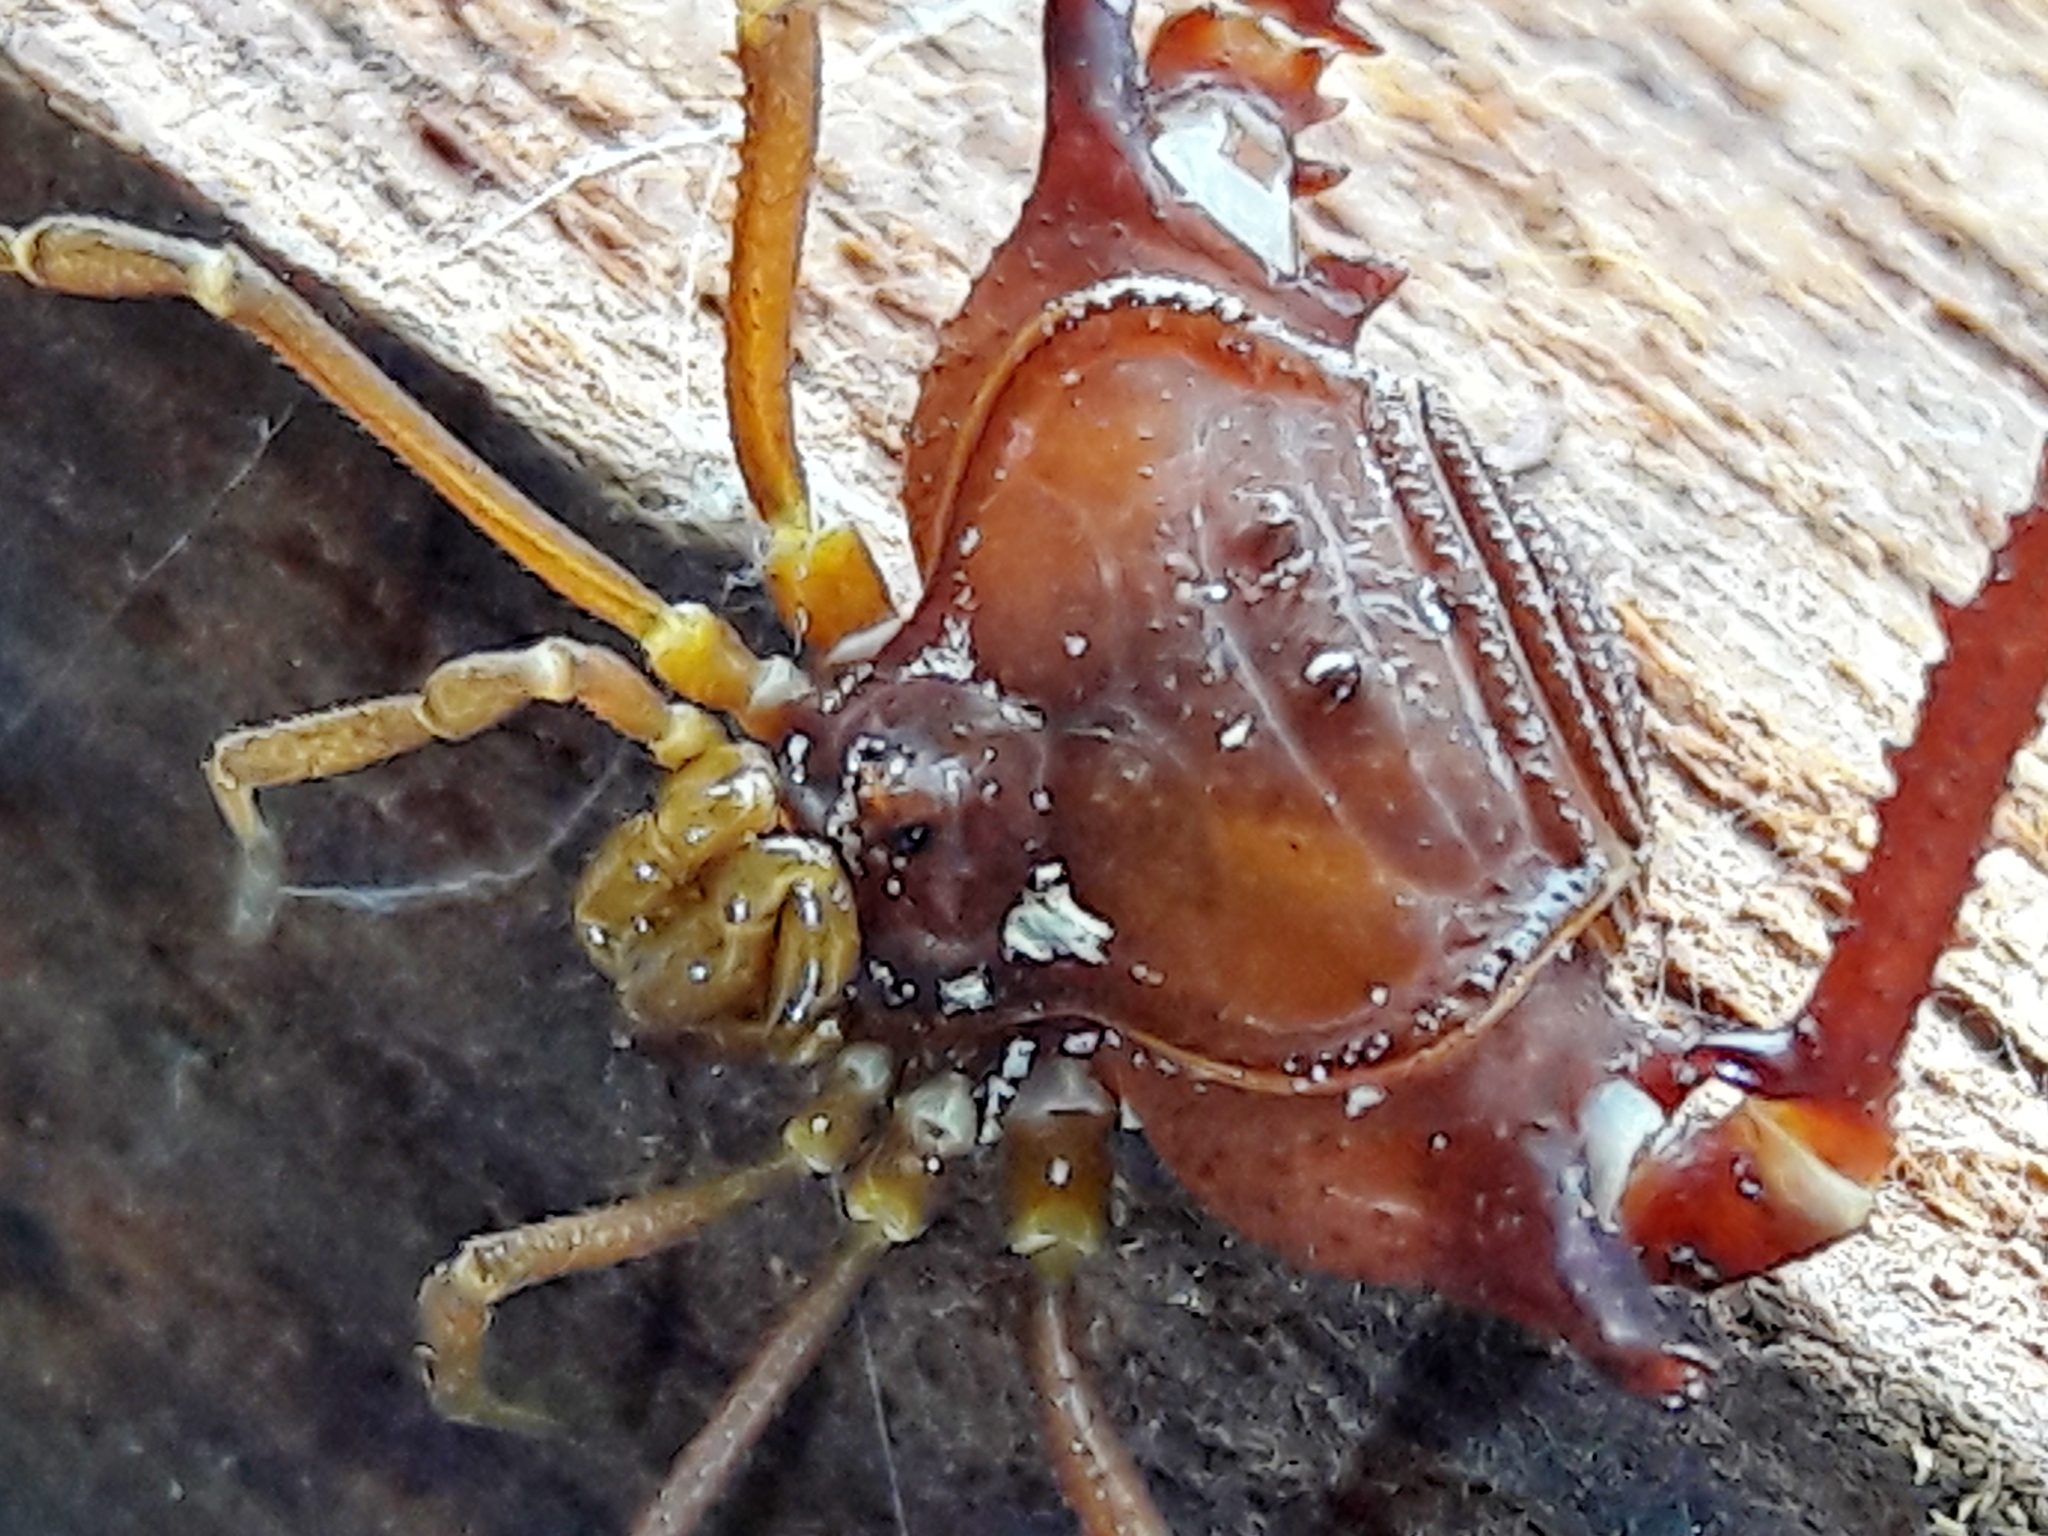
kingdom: Animalia
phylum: Arthropoda
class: Arachnida
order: Opiliones
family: Gonyleptidae
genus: Krateromaspis
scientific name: Krateromaspis dilatata
